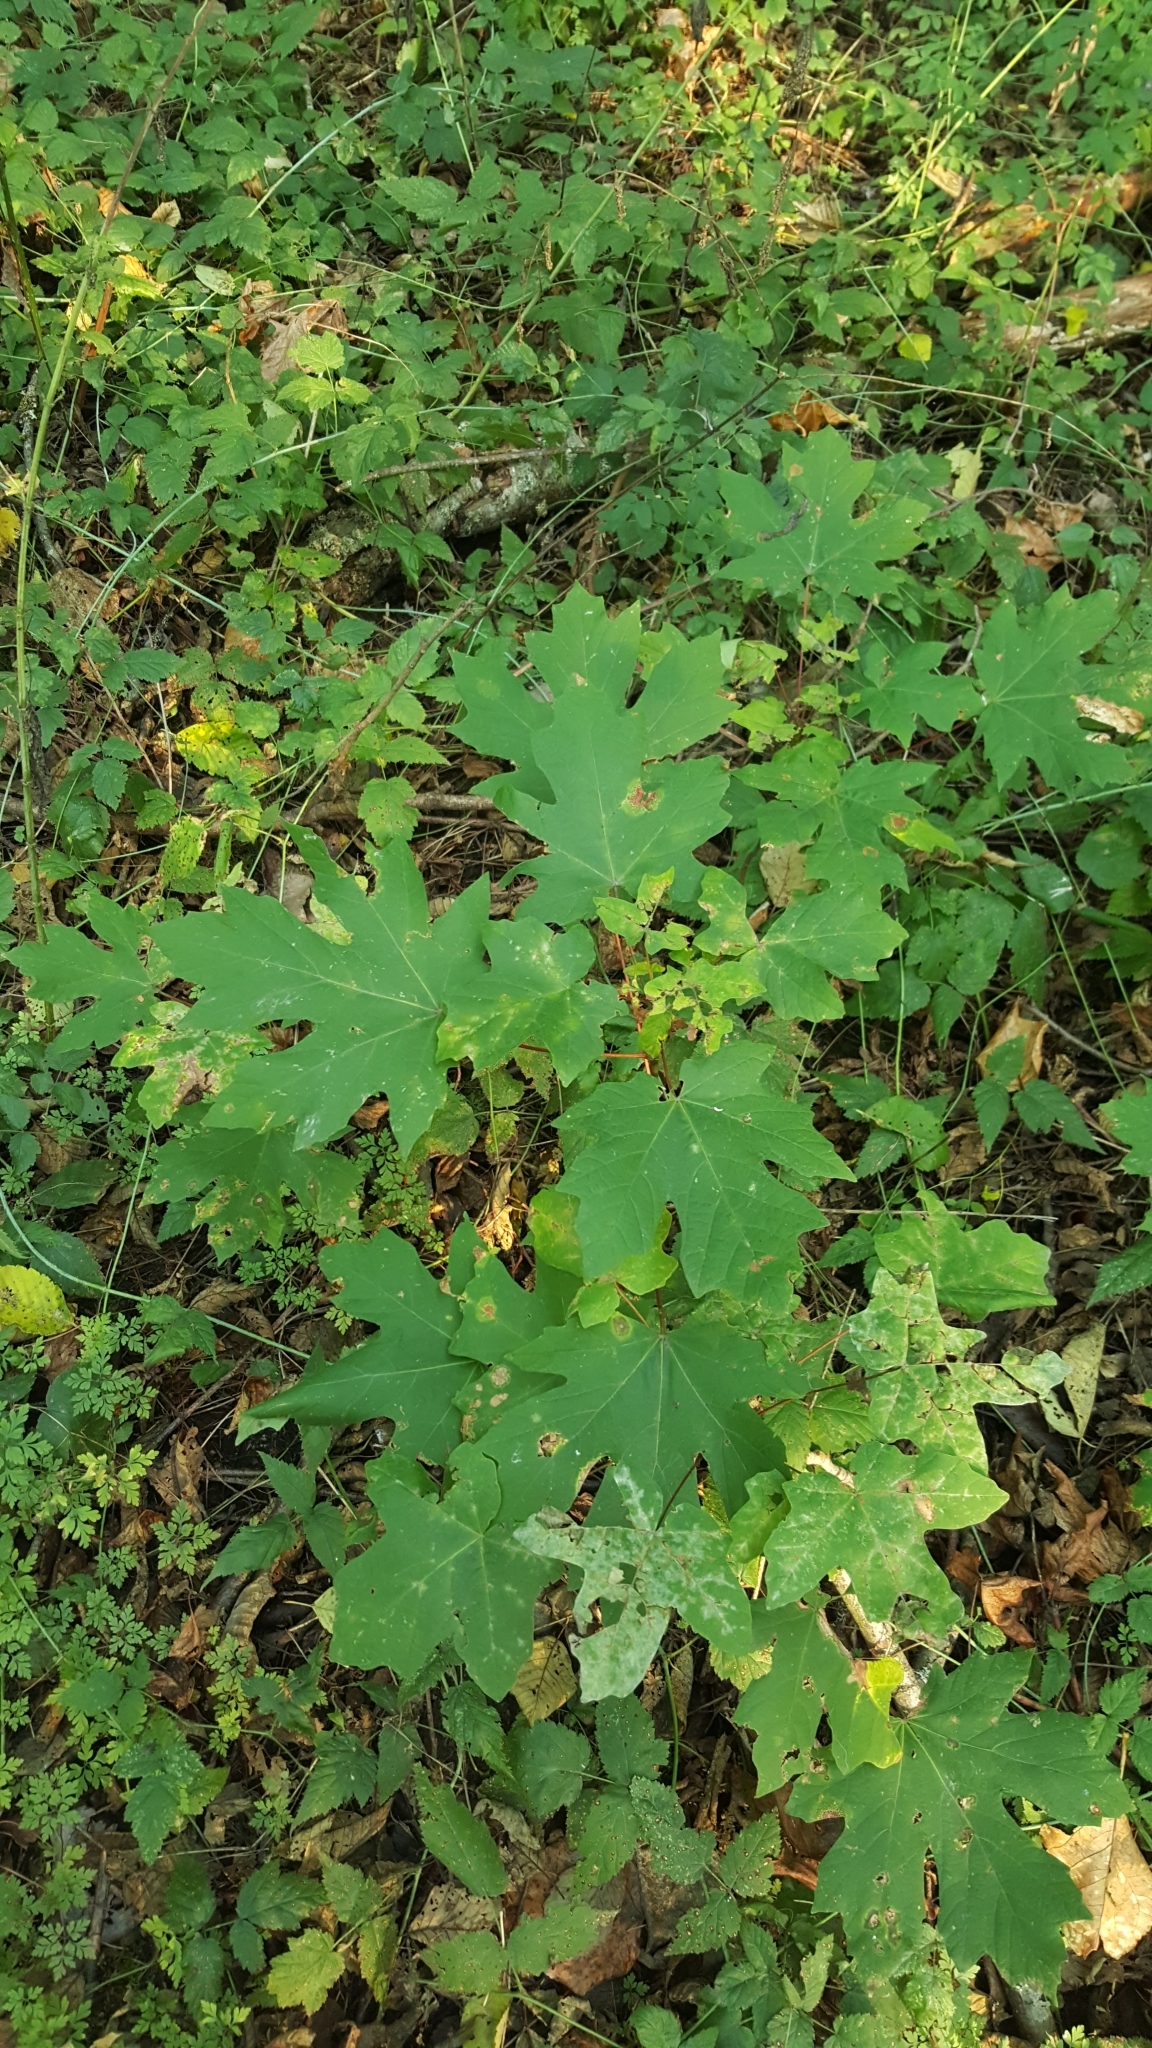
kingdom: Plantae
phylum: Tracheophyta
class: Magnoliopsida
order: Sapindales
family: Sapindaceae
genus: Acer
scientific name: Acer macrophyllum
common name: Oregon maple
